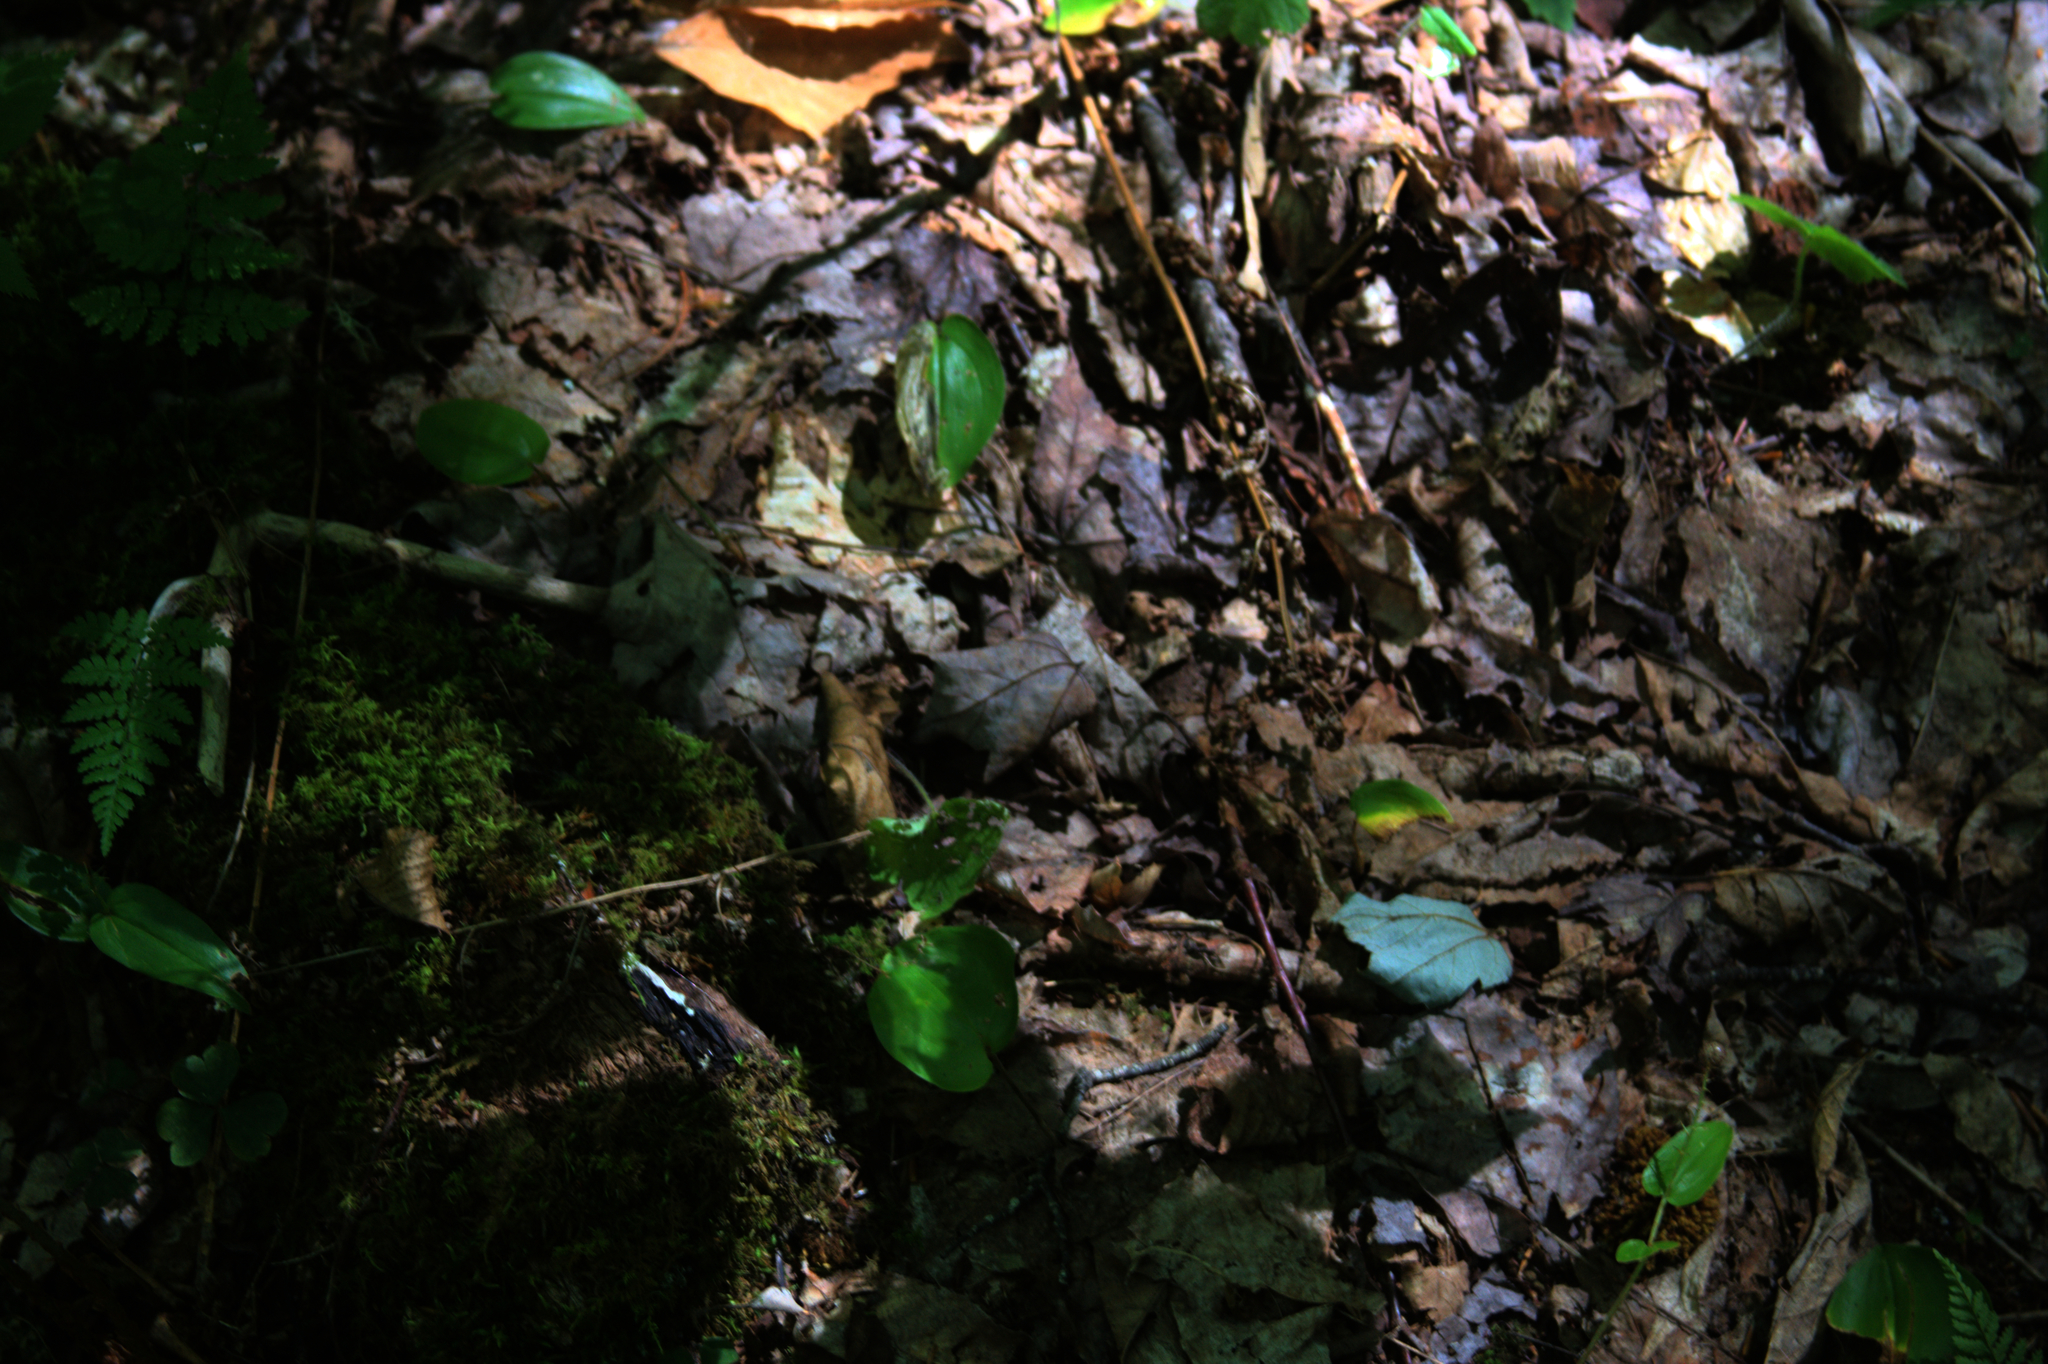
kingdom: Plantae
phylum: Tracheophyta
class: Liliopsida
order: Asparagales
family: Asparagaceae
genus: Maianthemum
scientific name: Maianthemum canadense
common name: False lily-of-the-valley
